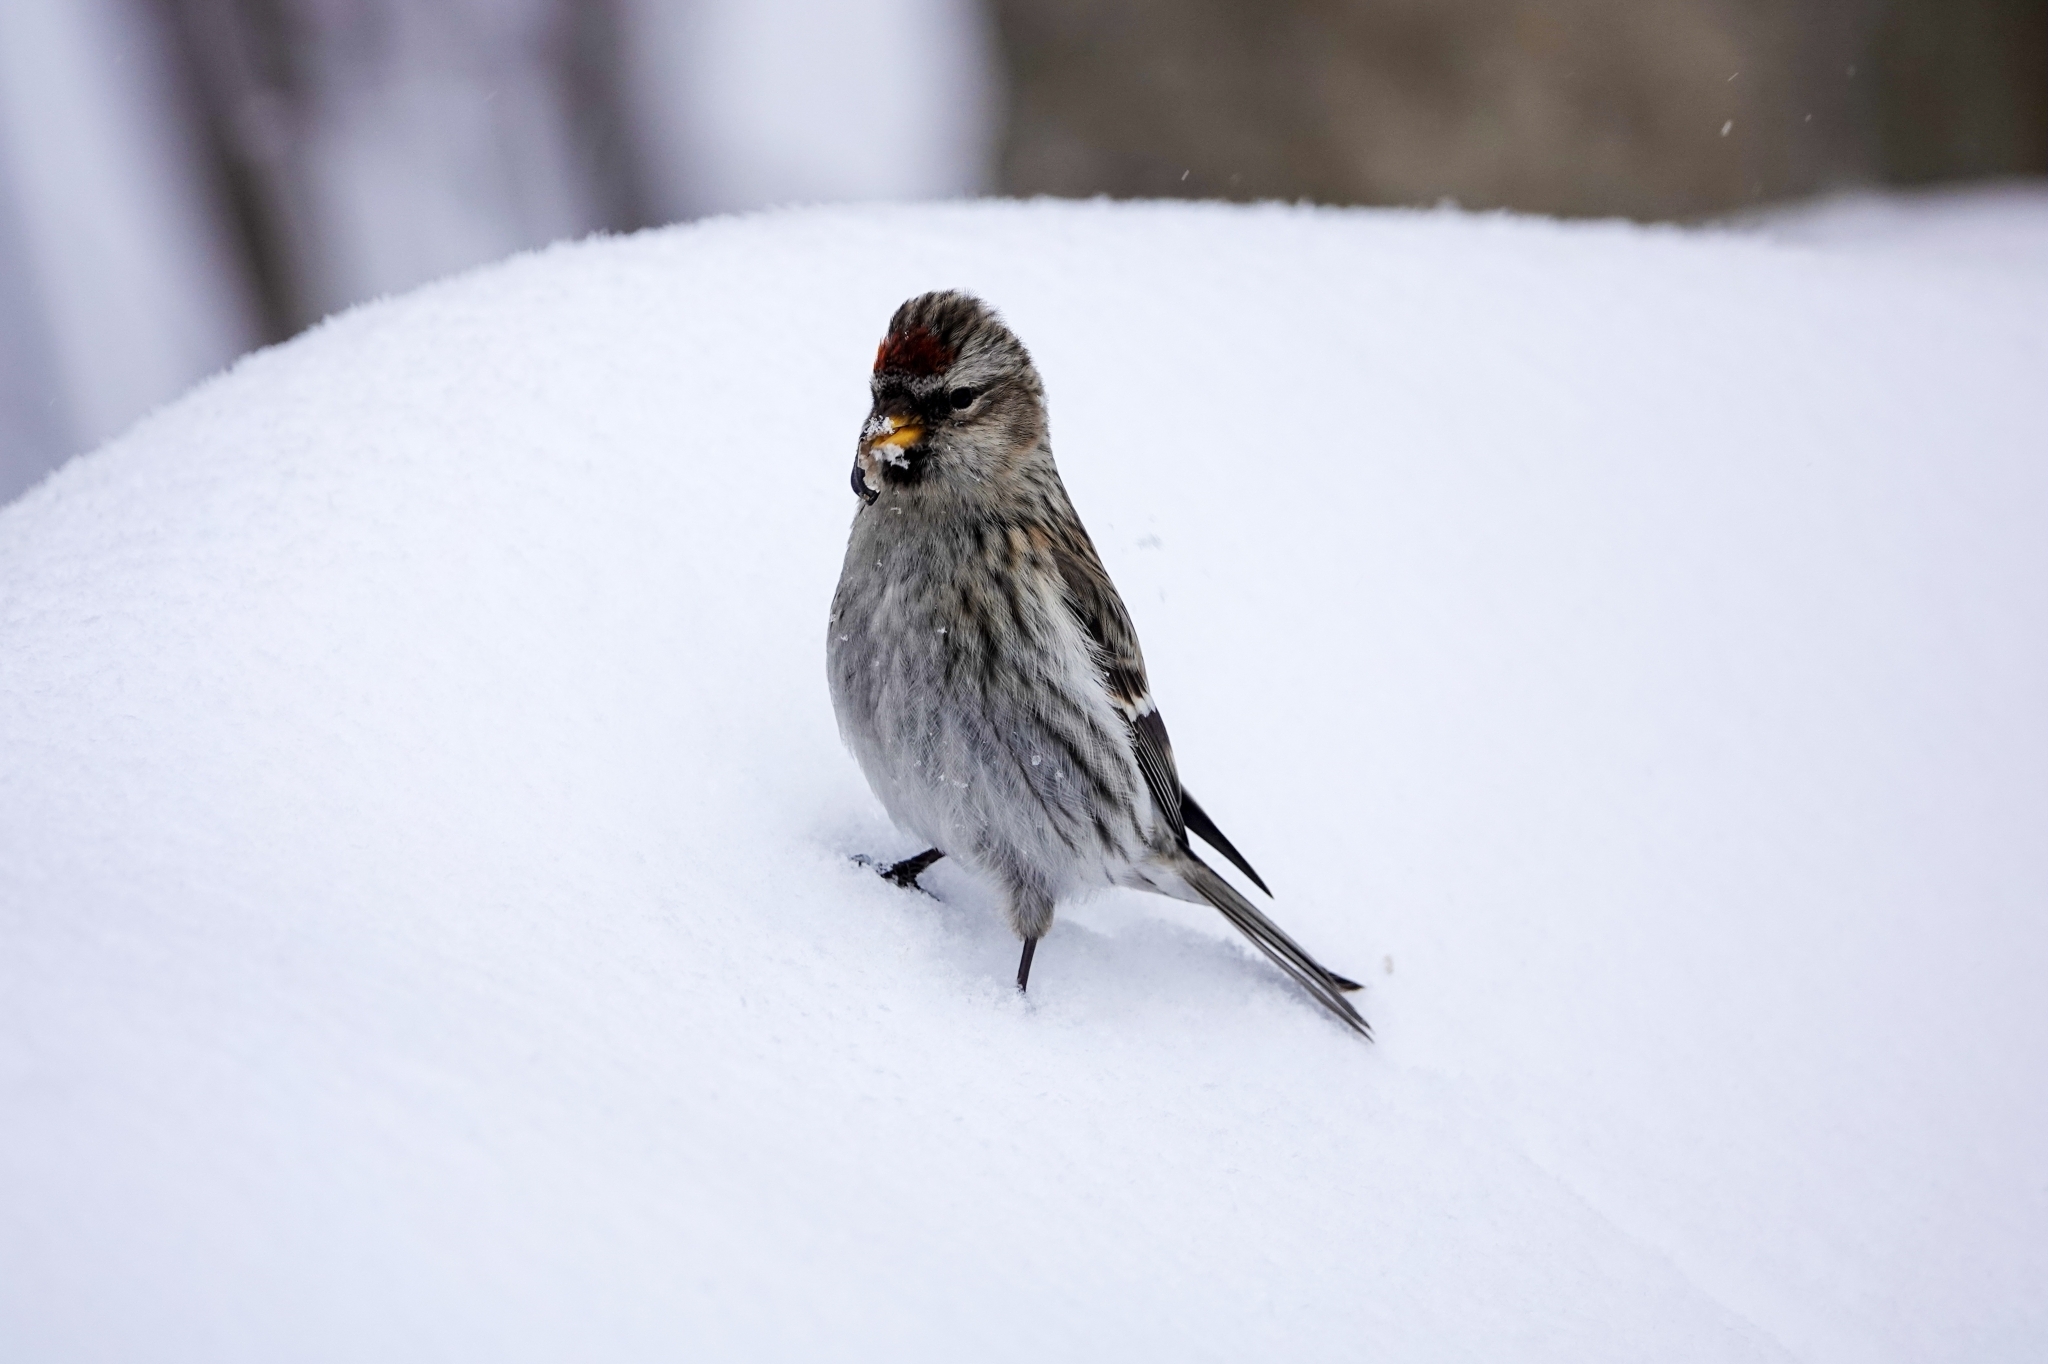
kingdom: Animalia
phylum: Chordata
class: Aves
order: Passeriformes
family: Fringillidae
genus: Acanthis
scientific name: Acanthis flammea
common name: Common redpoll
